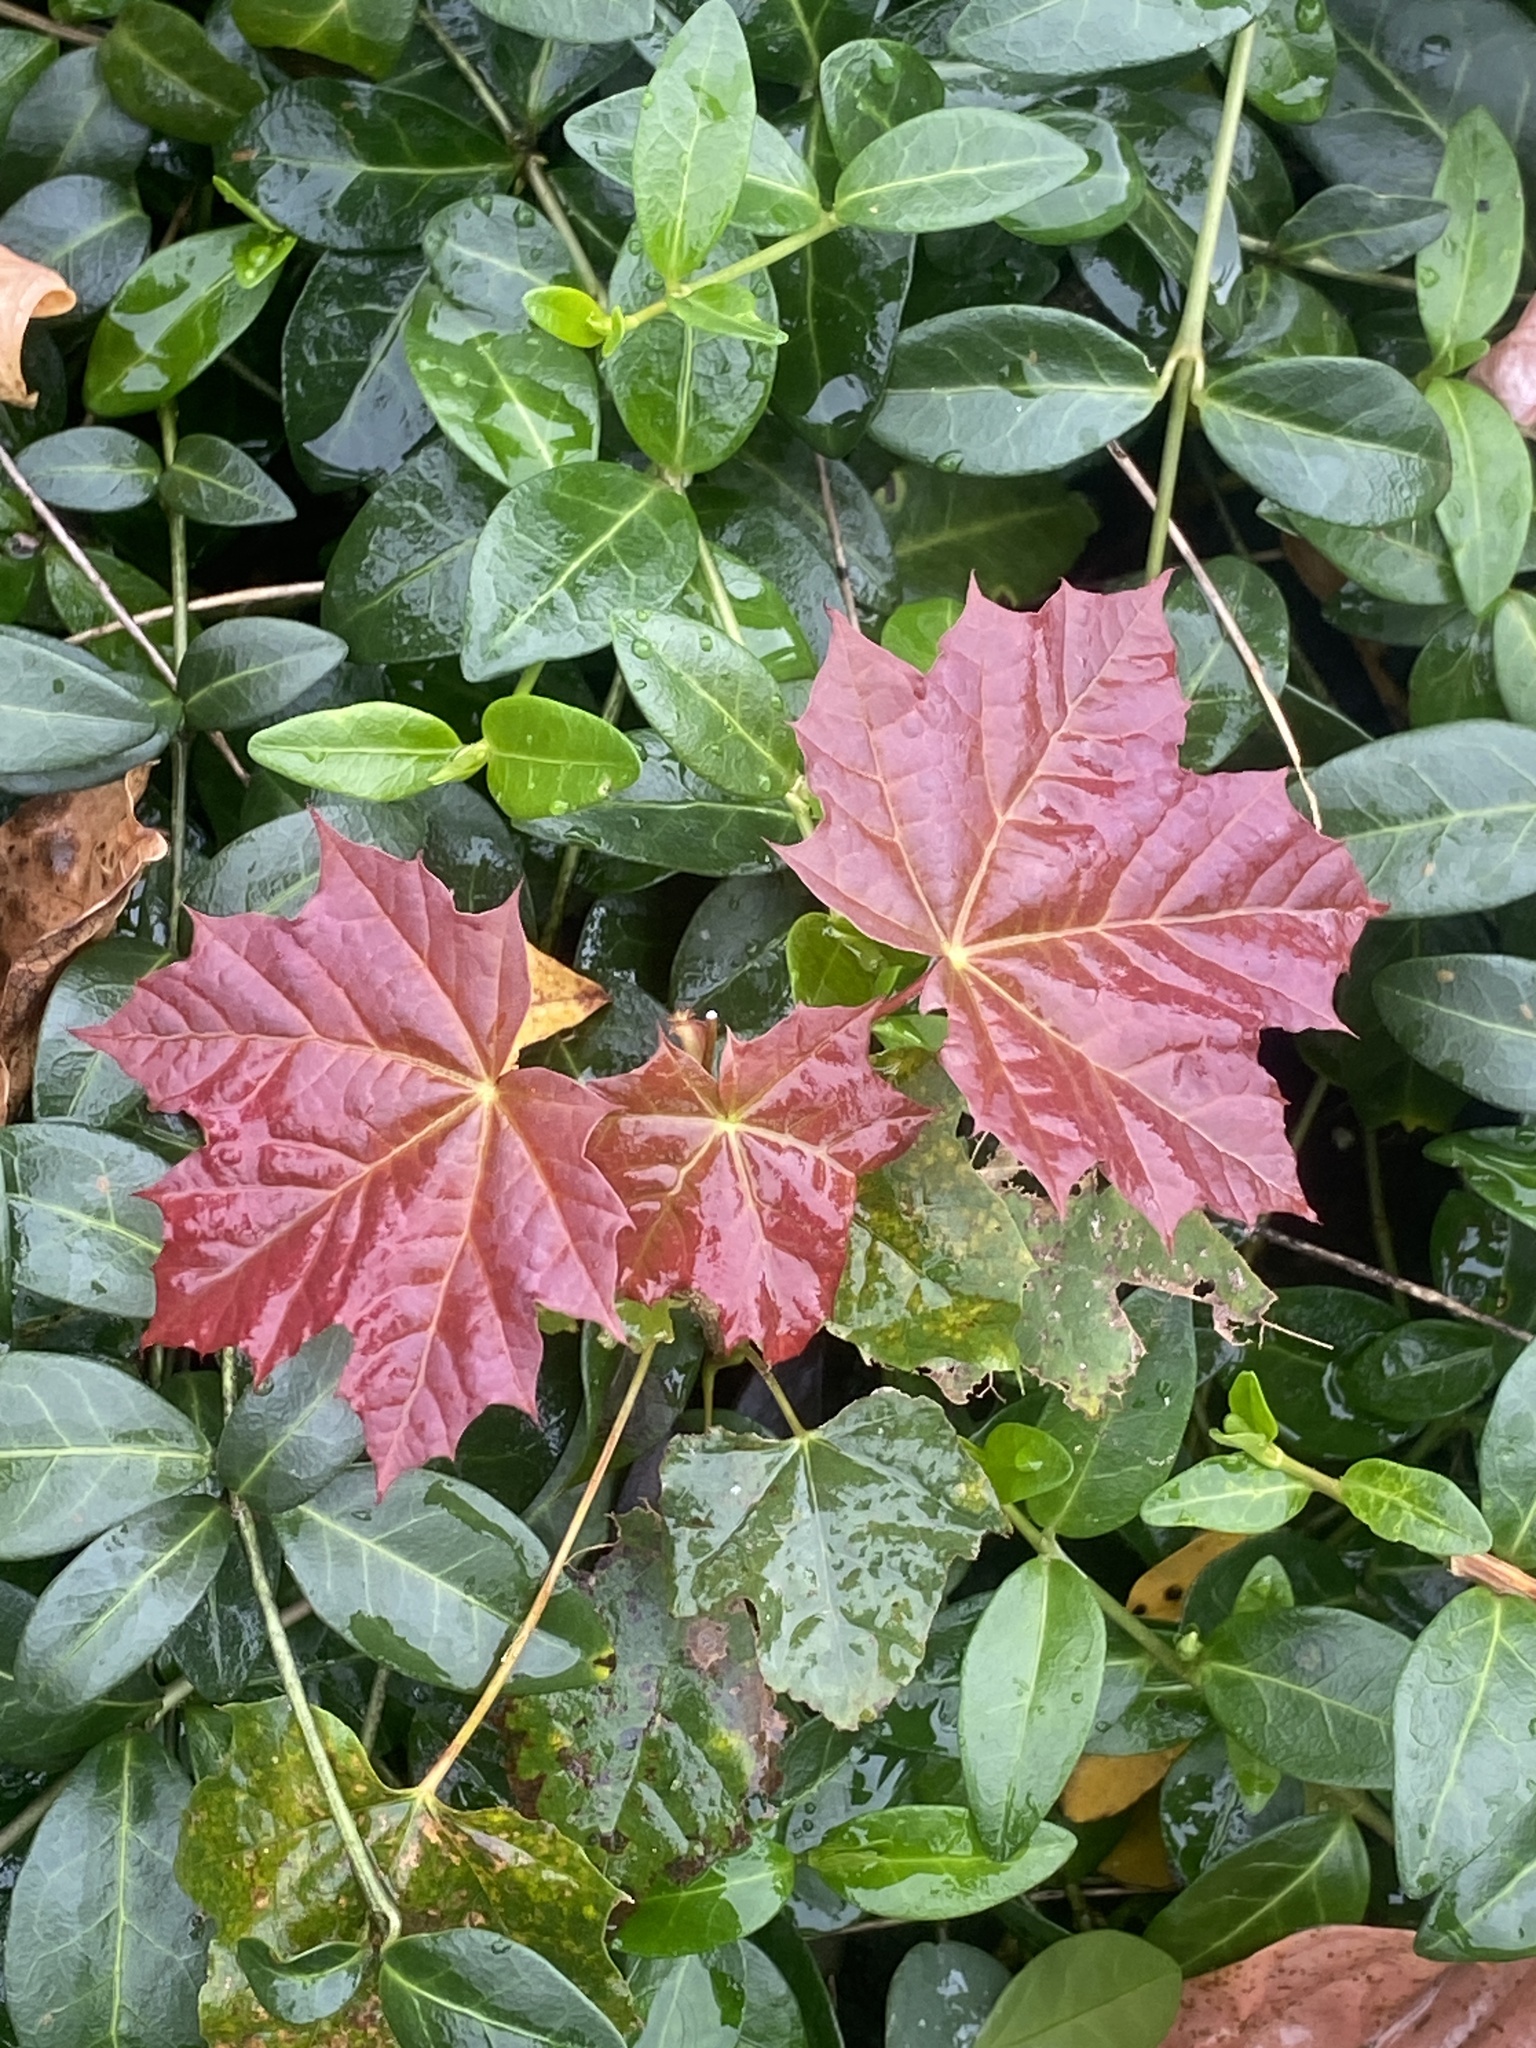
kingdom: Plantae
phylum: Tracheophyta
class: Magnoliopsida
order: Sapindales
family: Sapindaceae
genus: Acer
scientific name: Acer platanoides
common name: Norway maple
